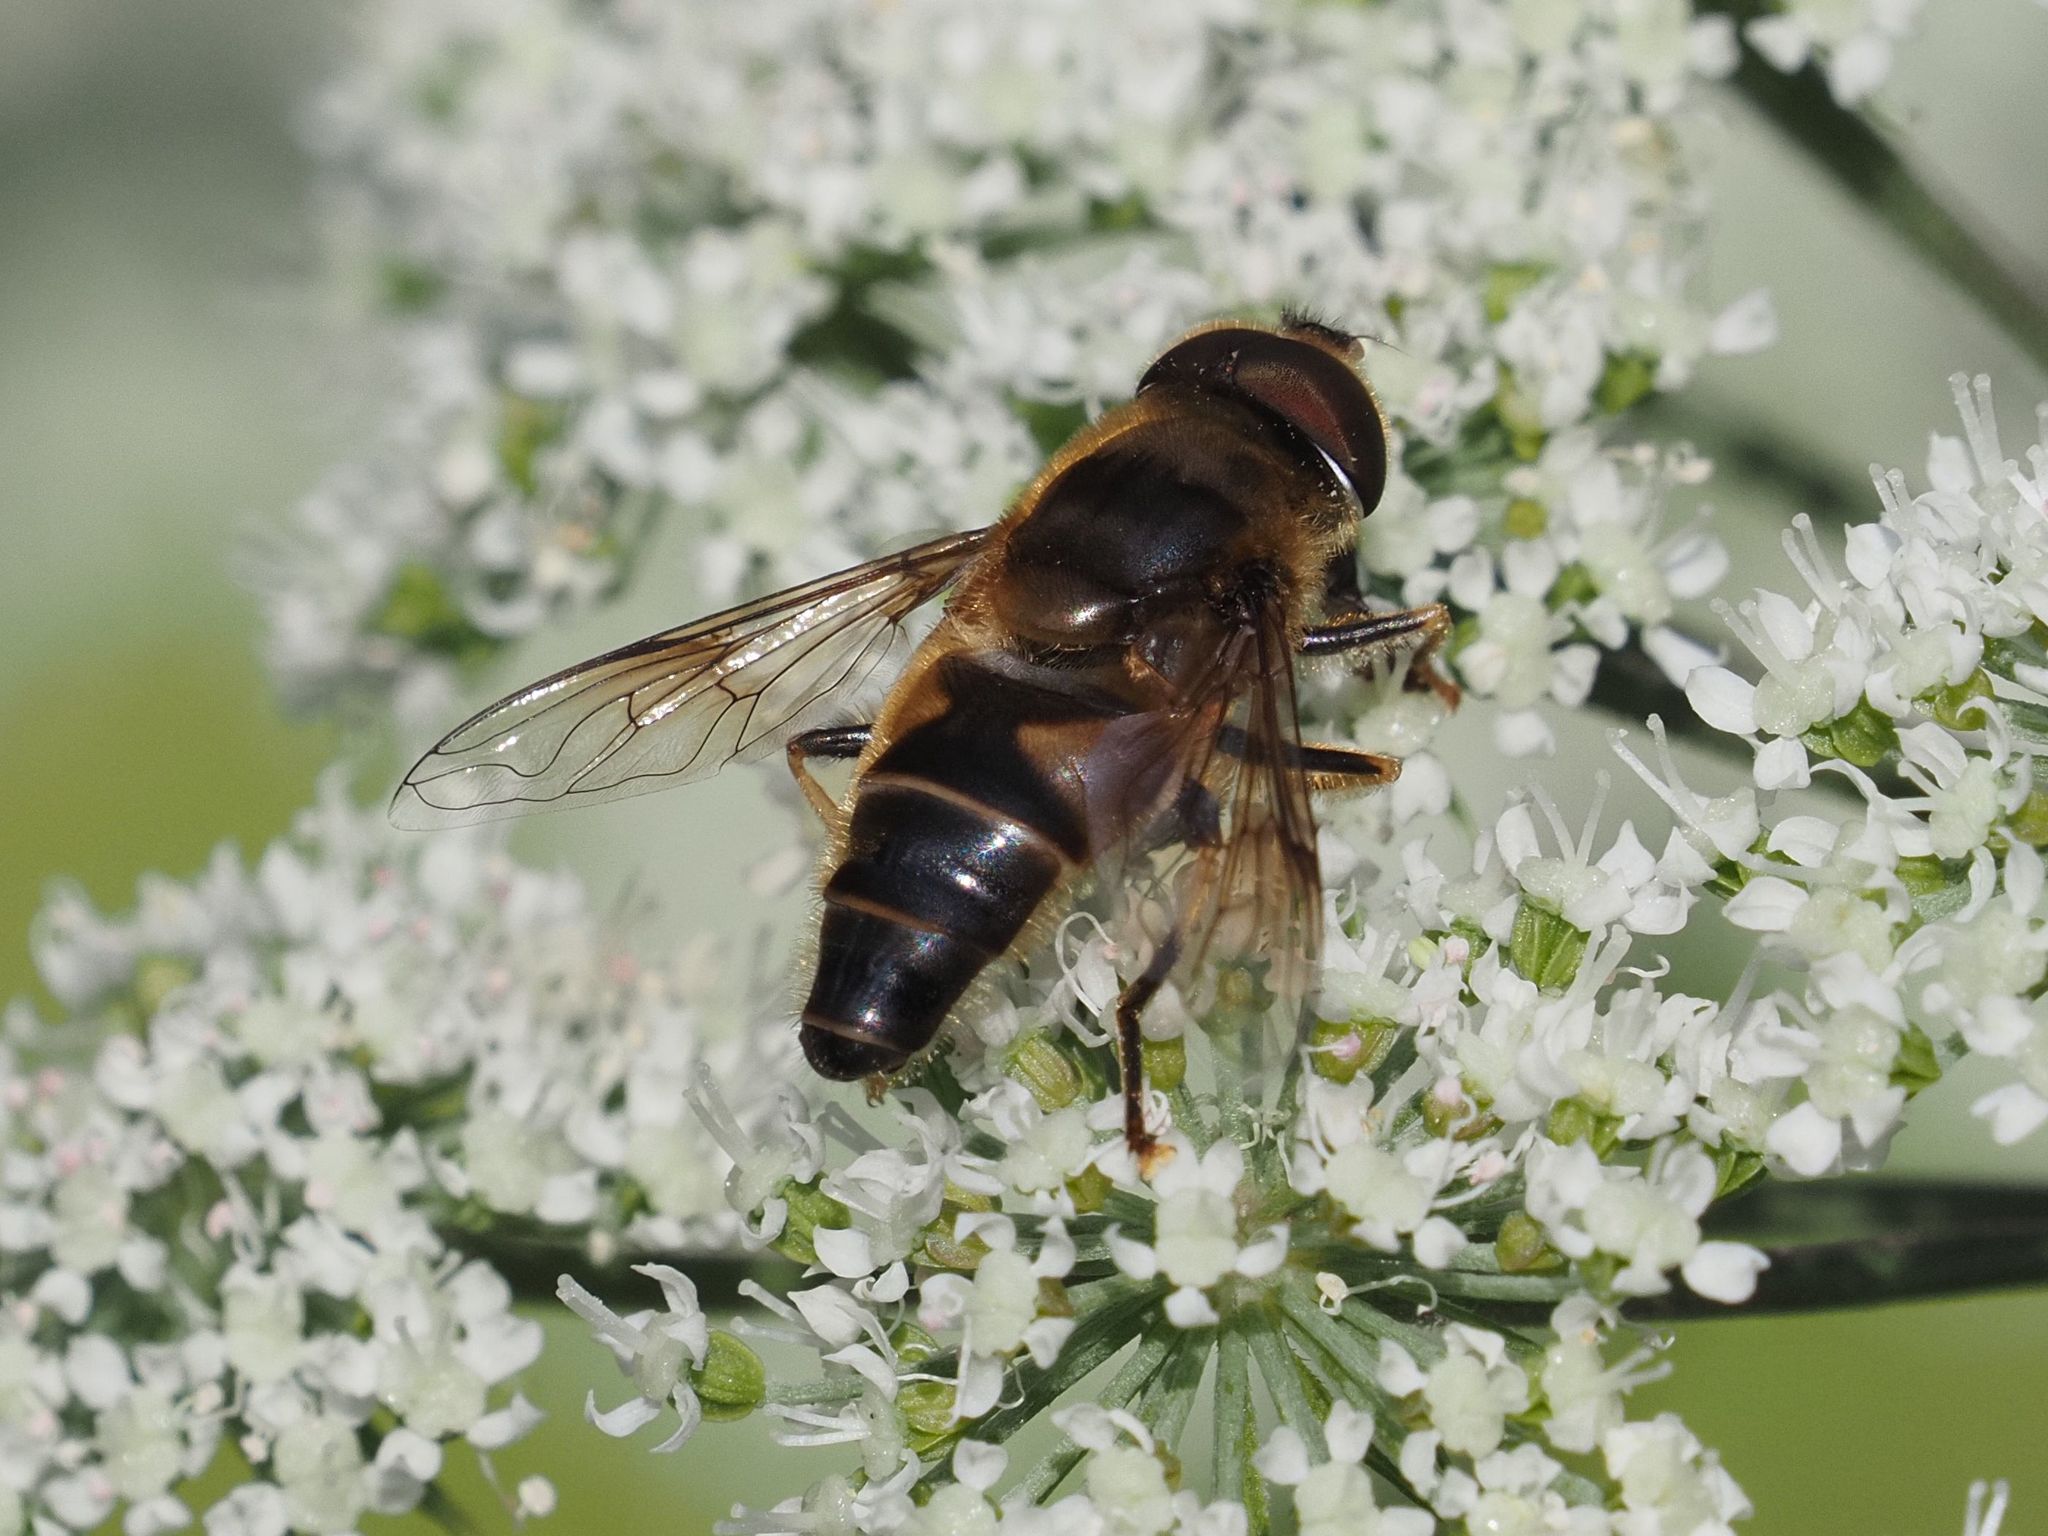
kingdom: Animalia
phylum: Arthropoda
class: Insecta
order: Diptera
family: Syrphidae
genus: Eristalis
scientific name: Eristalis pertinax
